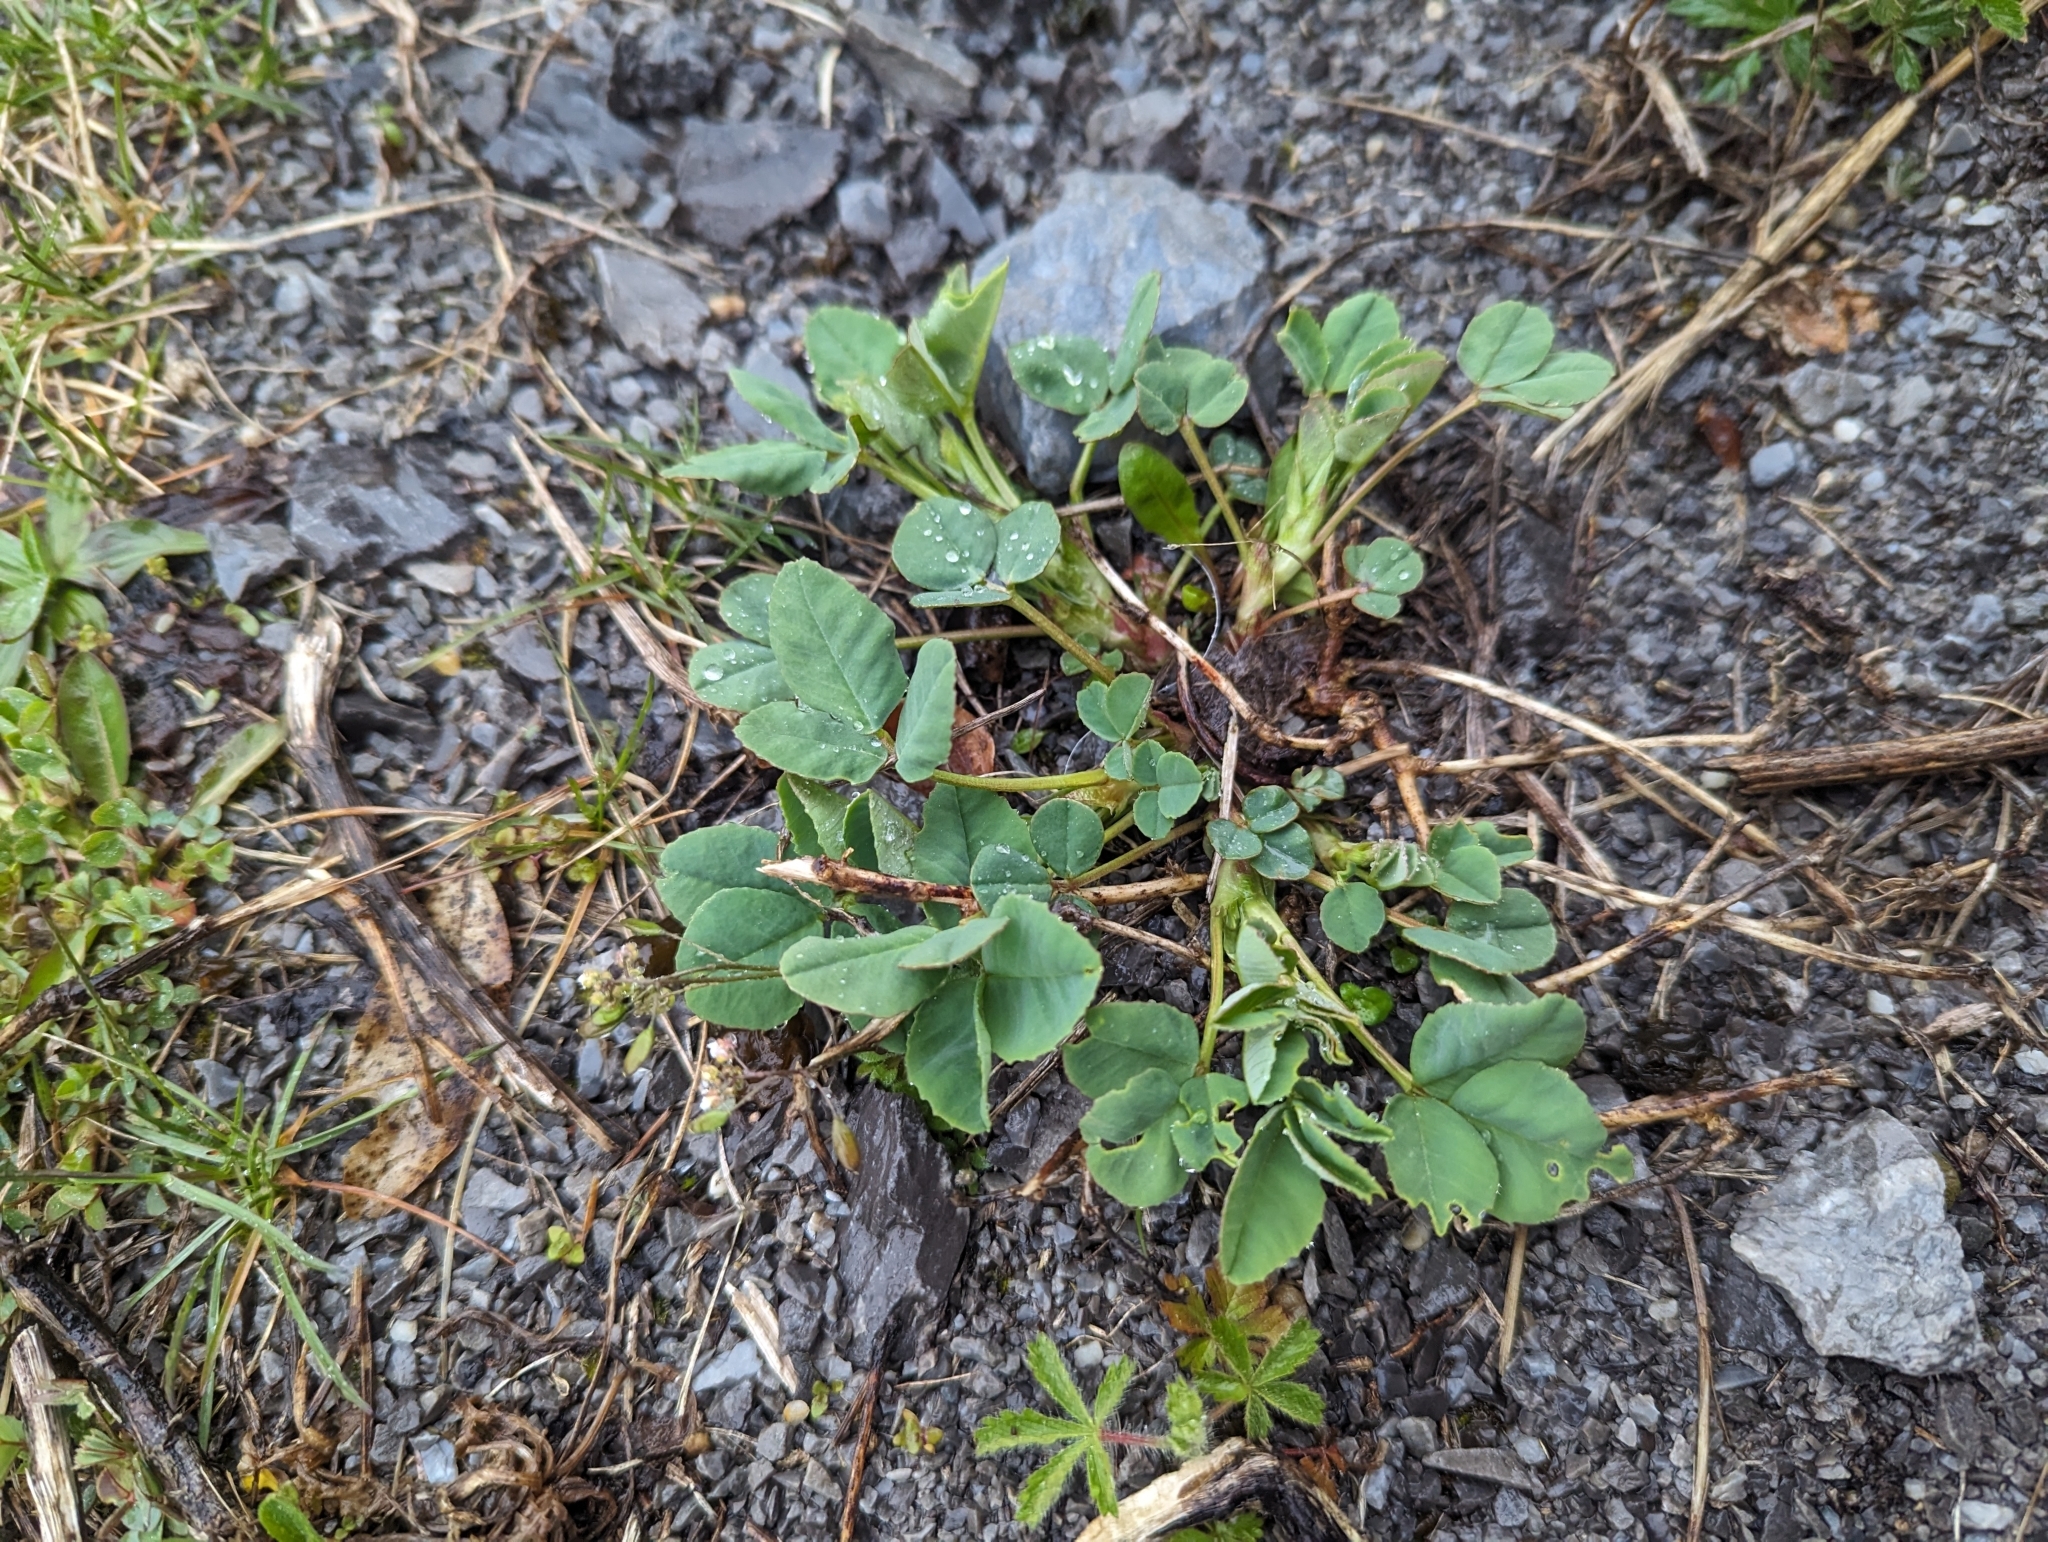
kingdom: Plantae
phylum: Tracheophyta
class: Magnoliopsida
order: Fabales
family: Fabaceae
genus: Melilotus
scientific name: Melilotus albus
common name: White melilot
